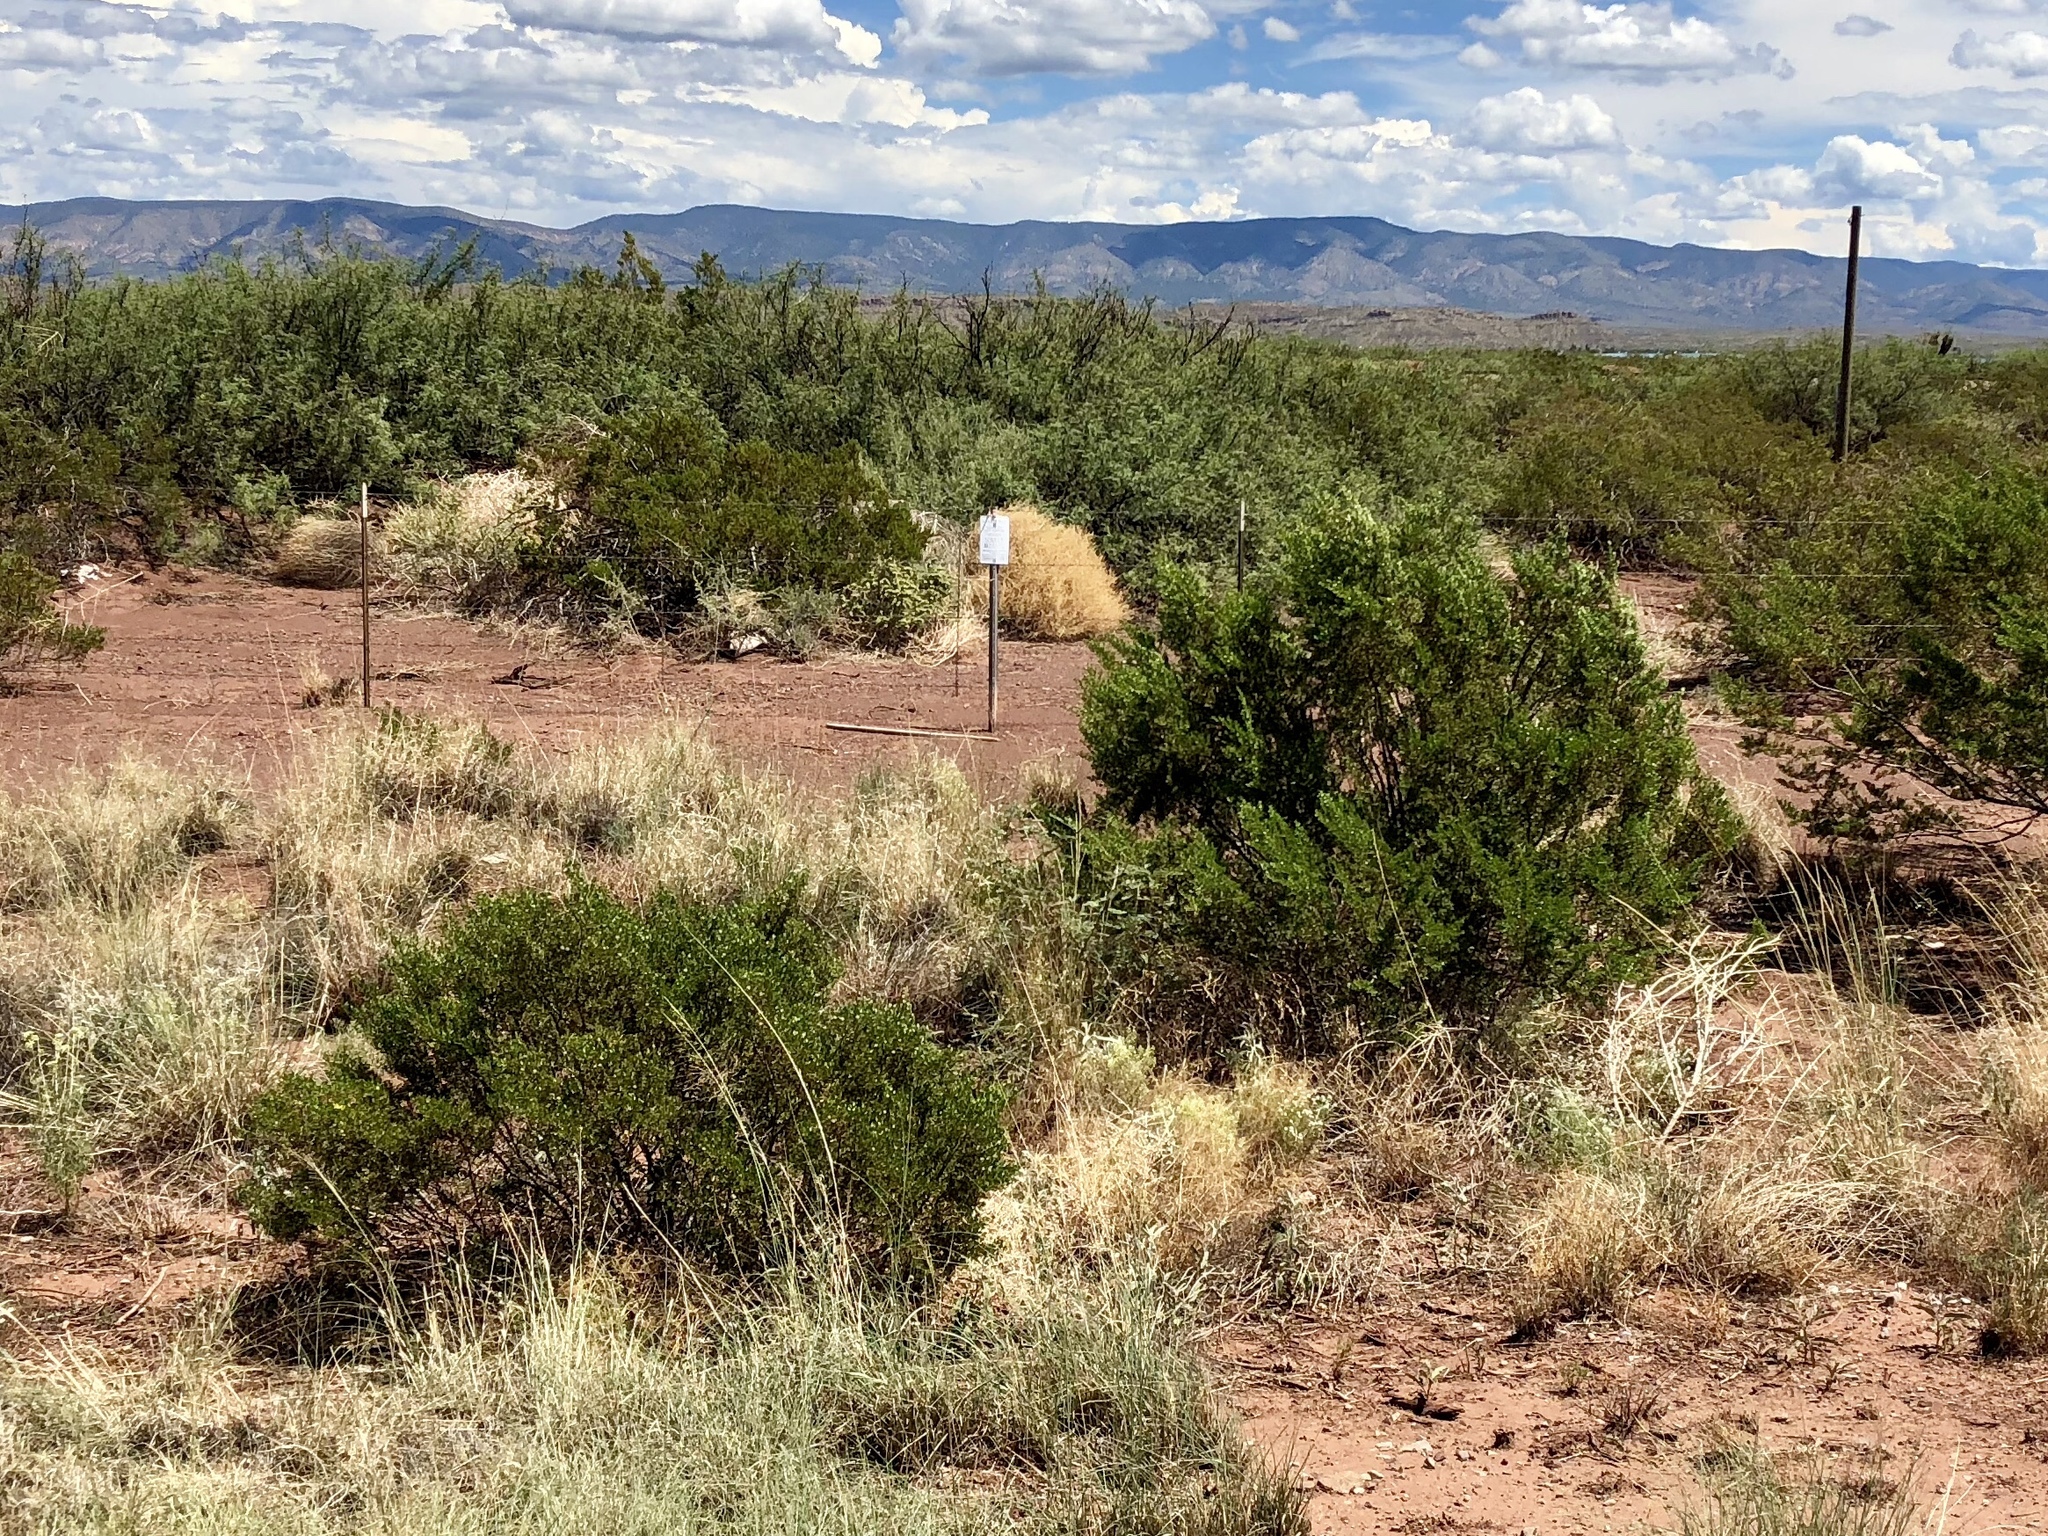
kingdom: Plantae
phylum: Tracheophyta
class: Magnoliopsida
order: Zygophyllales
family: Zygophyllaceae
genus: Larrea
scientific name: Larrea tridentata
